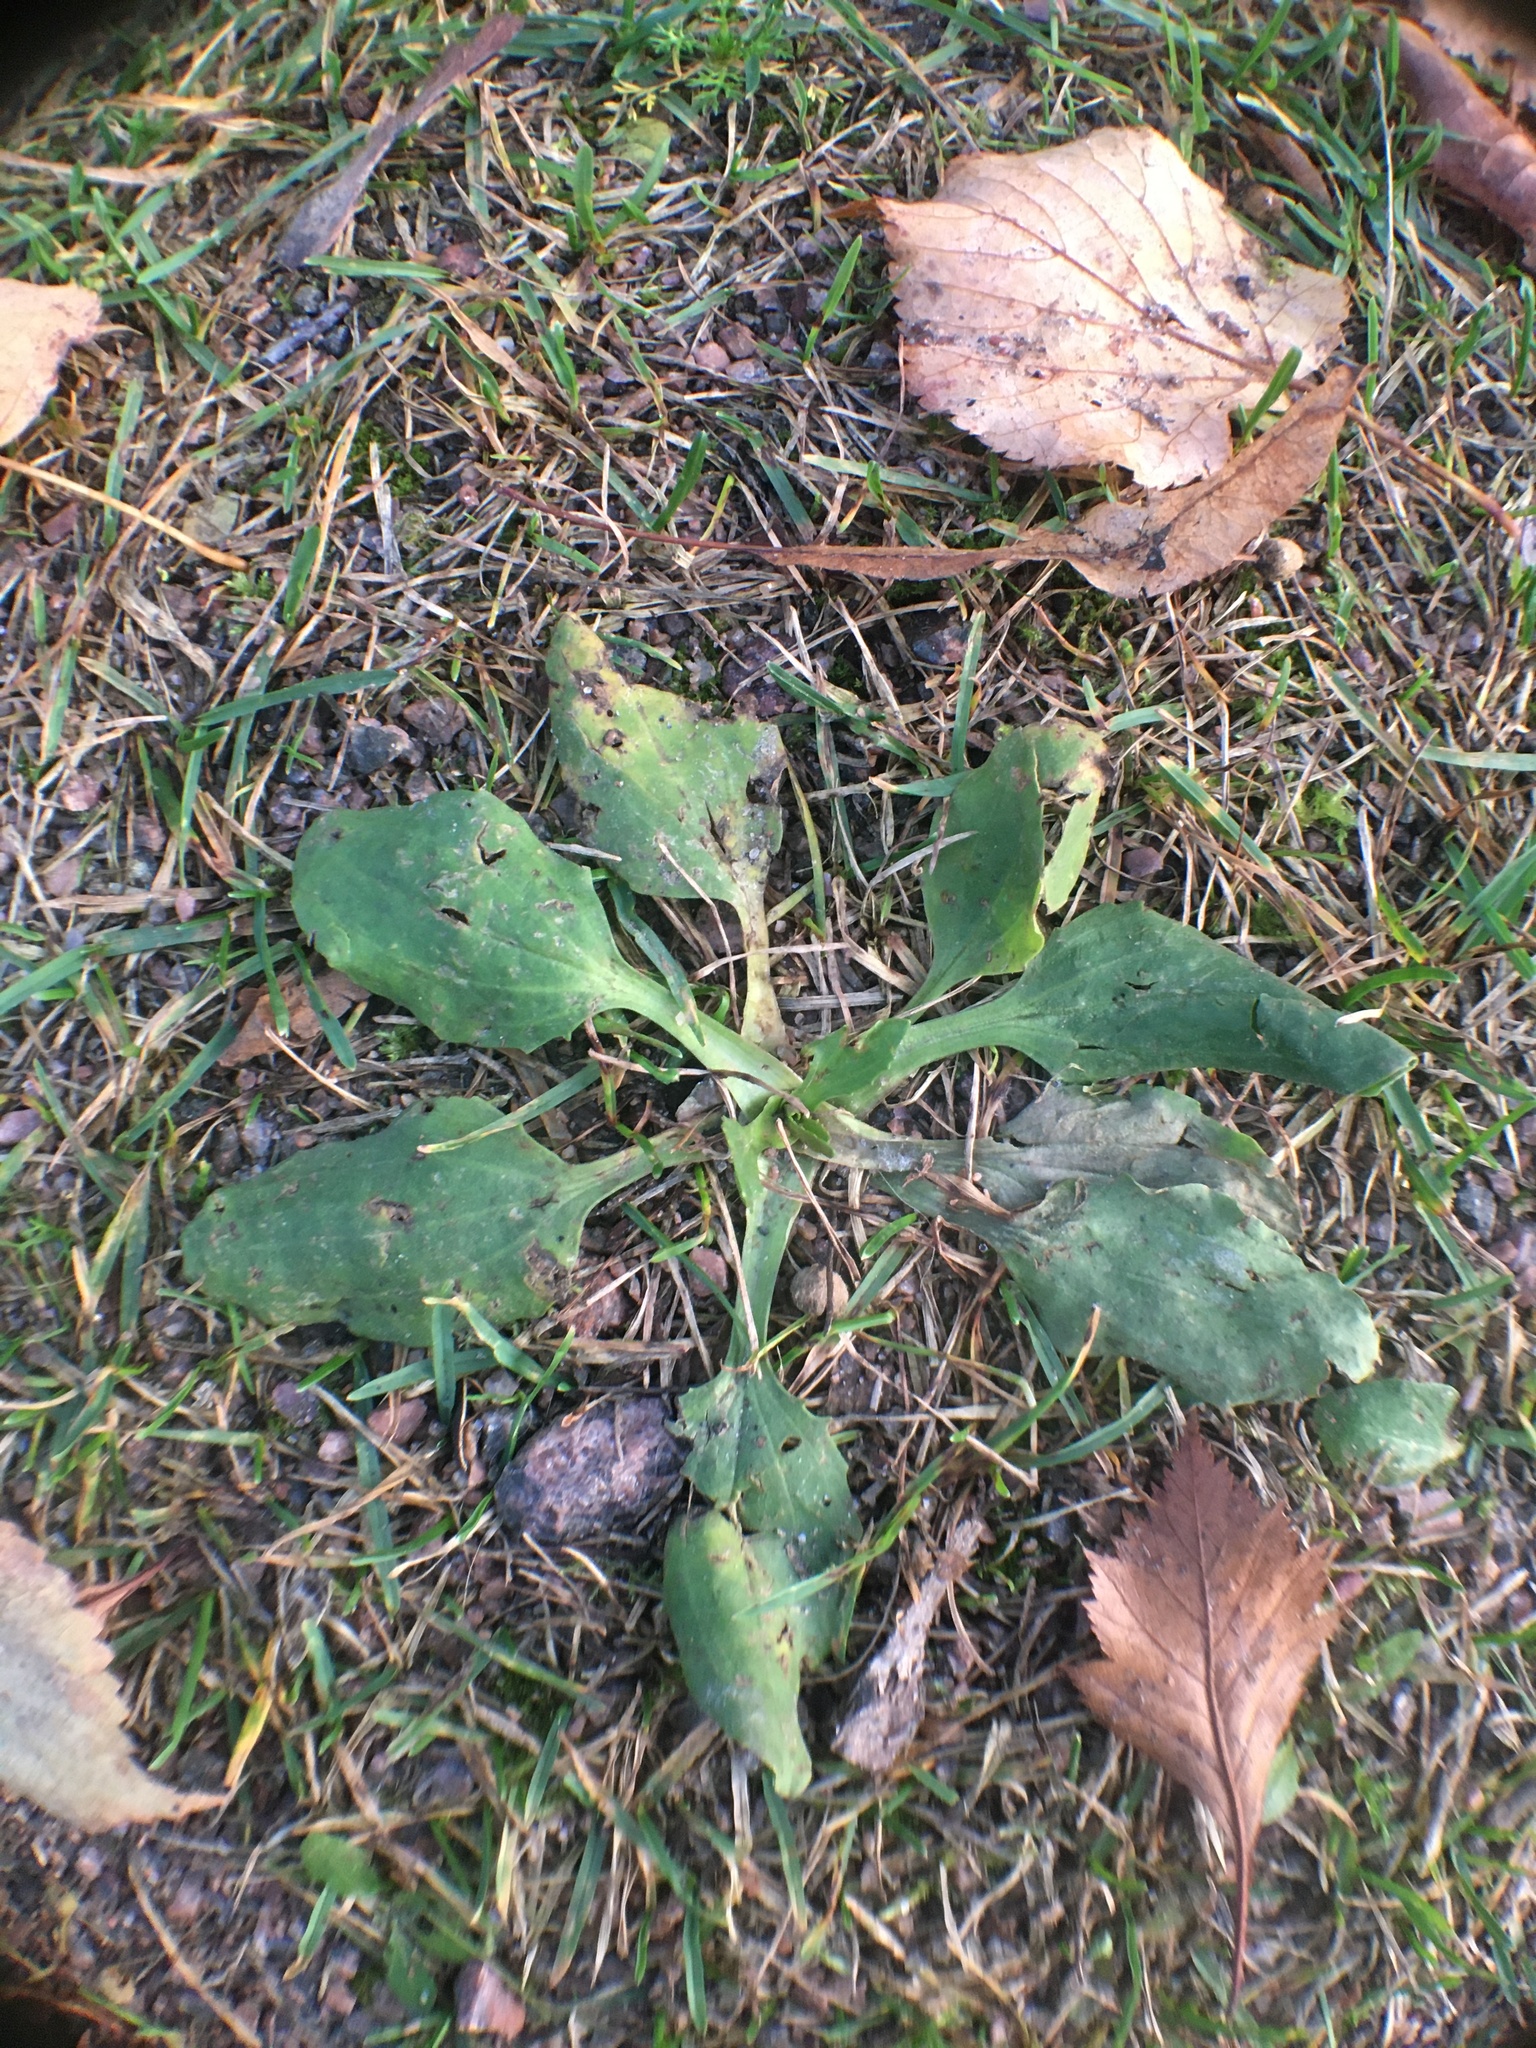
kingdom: Plantae
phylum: Tracheophyta
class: Magnoliopsida
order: Lamiales
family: Plantaginaceae
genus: Plantago
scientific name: Plantago major
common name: Common plantain
